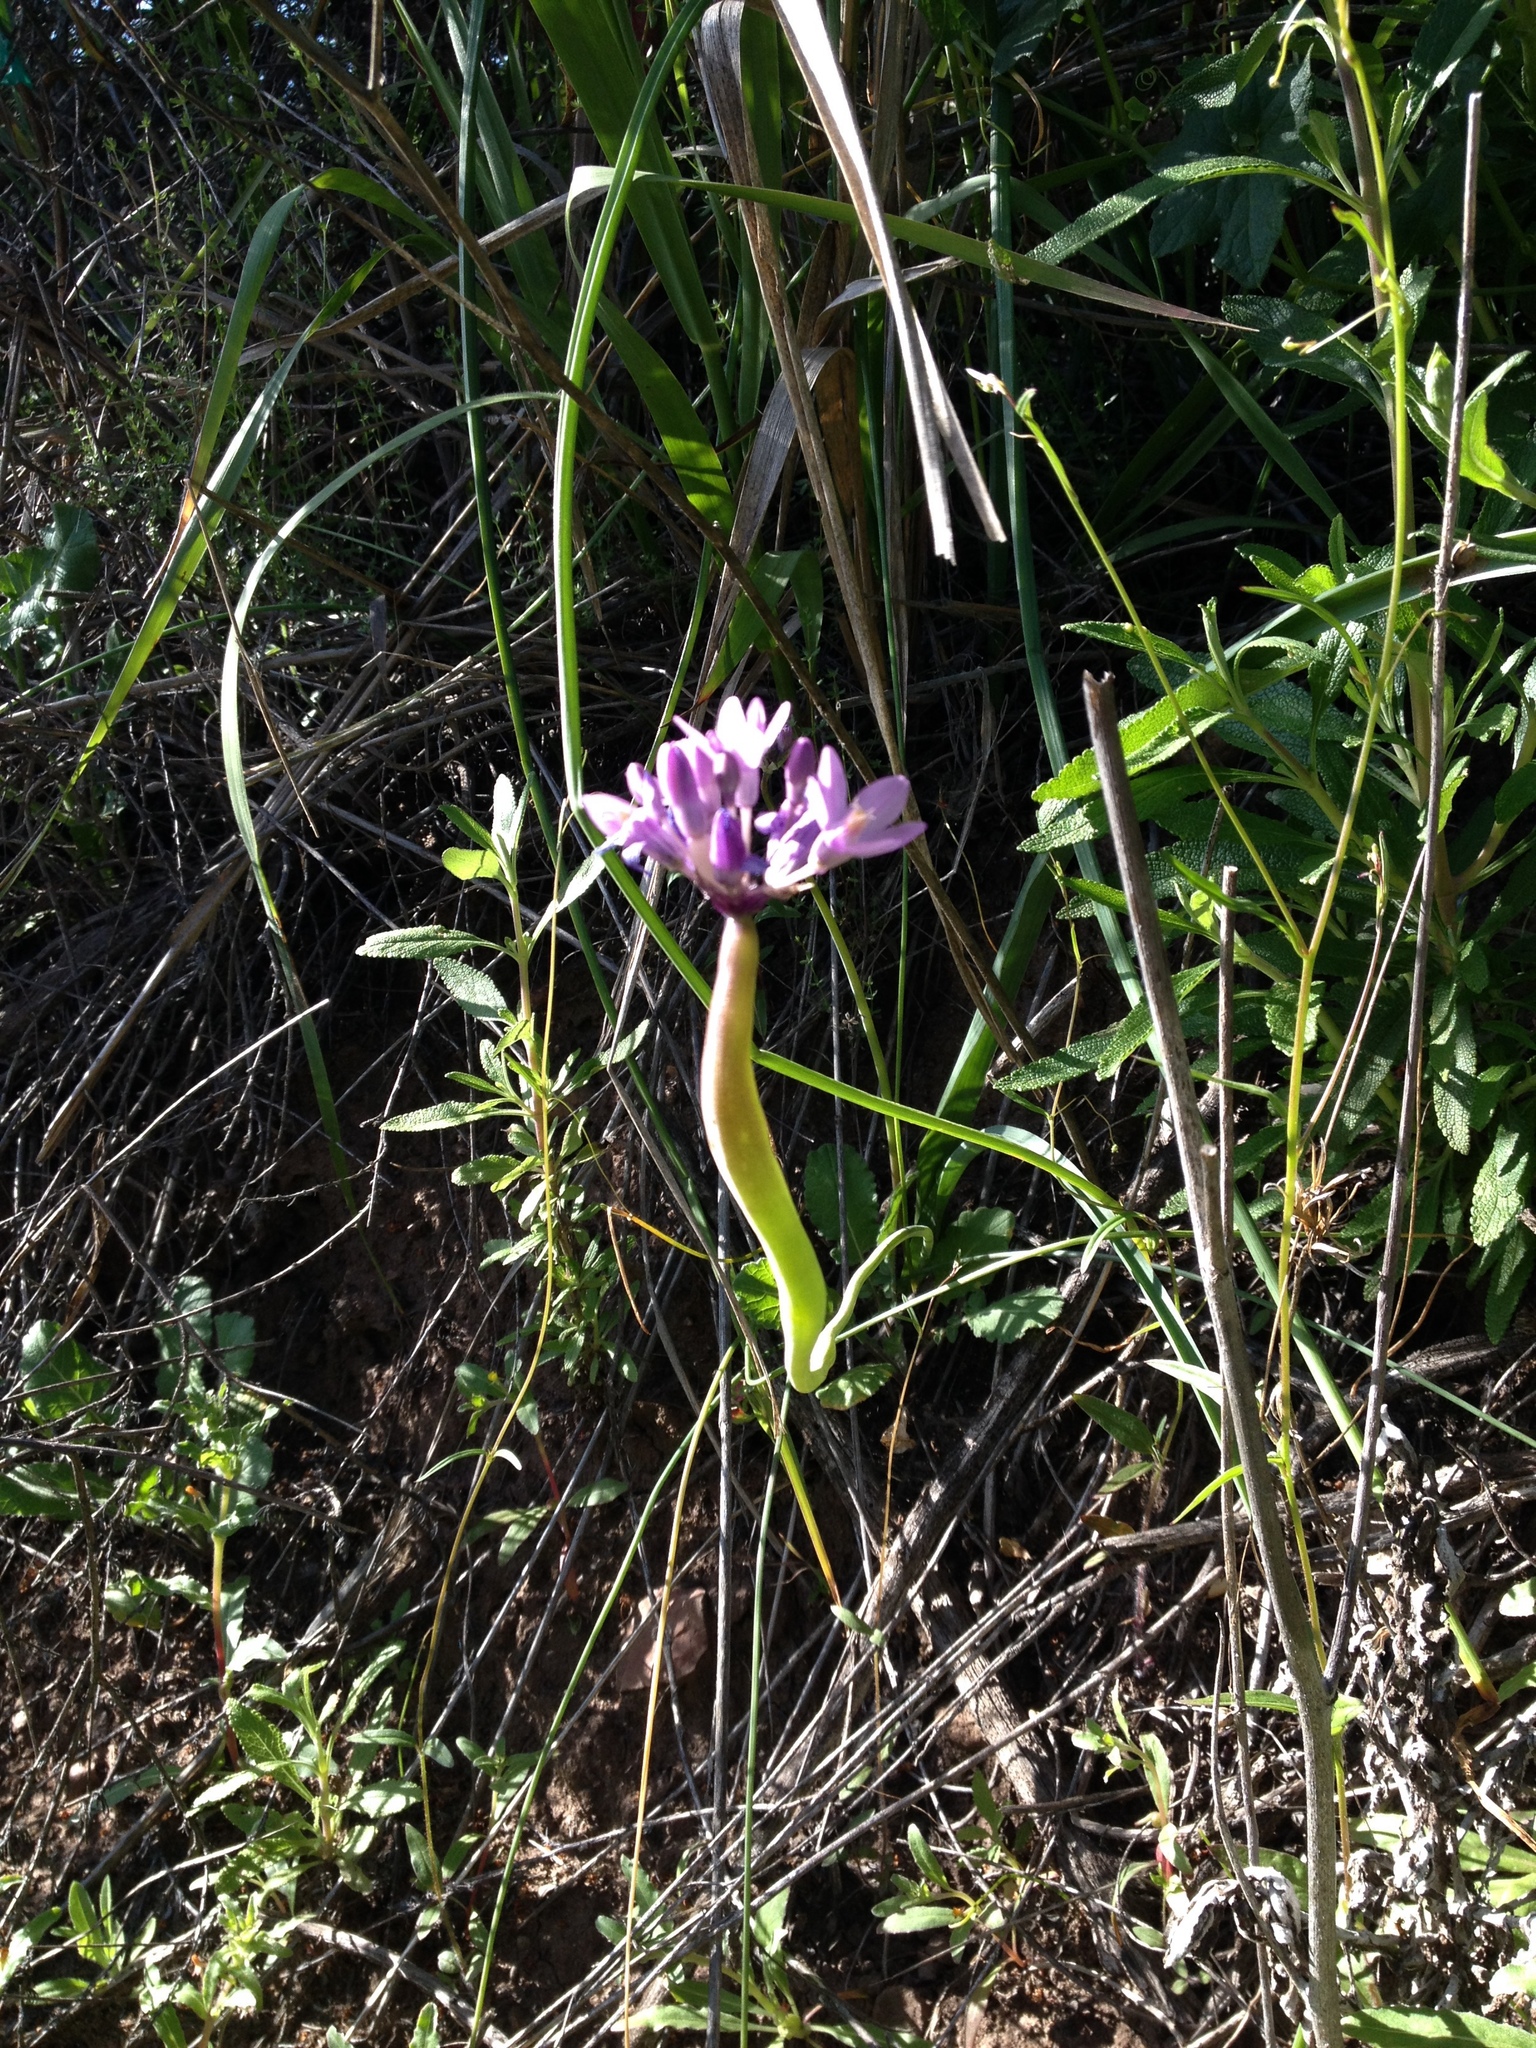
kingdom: Plantae
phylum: Tracheophyta
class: Liliopsida
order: Asparagales
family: Asparagaceae
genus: Dipterostemon
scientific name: Dipterostemon capitatus
